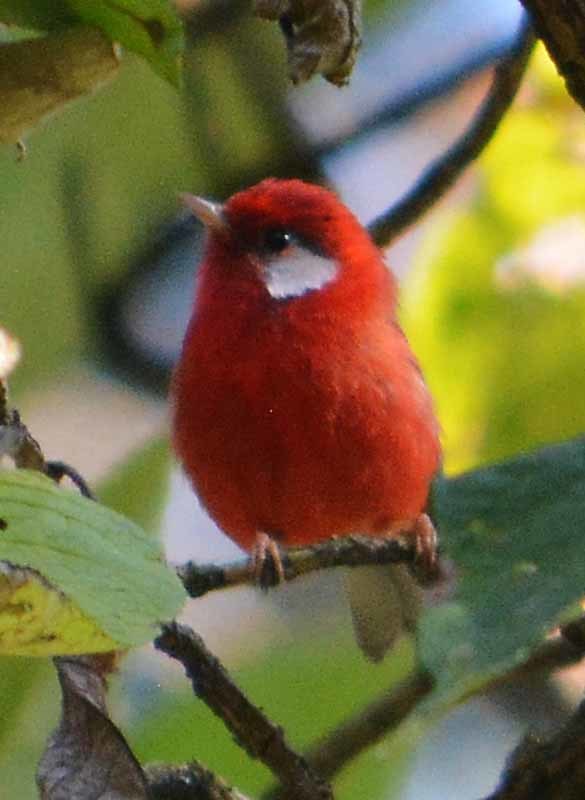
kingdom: Animalia
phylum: Chordata
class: Aves
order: Passeriformes
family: Parulidae
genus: Cardellina
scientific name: Cardellina rubra
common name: Red warbler
